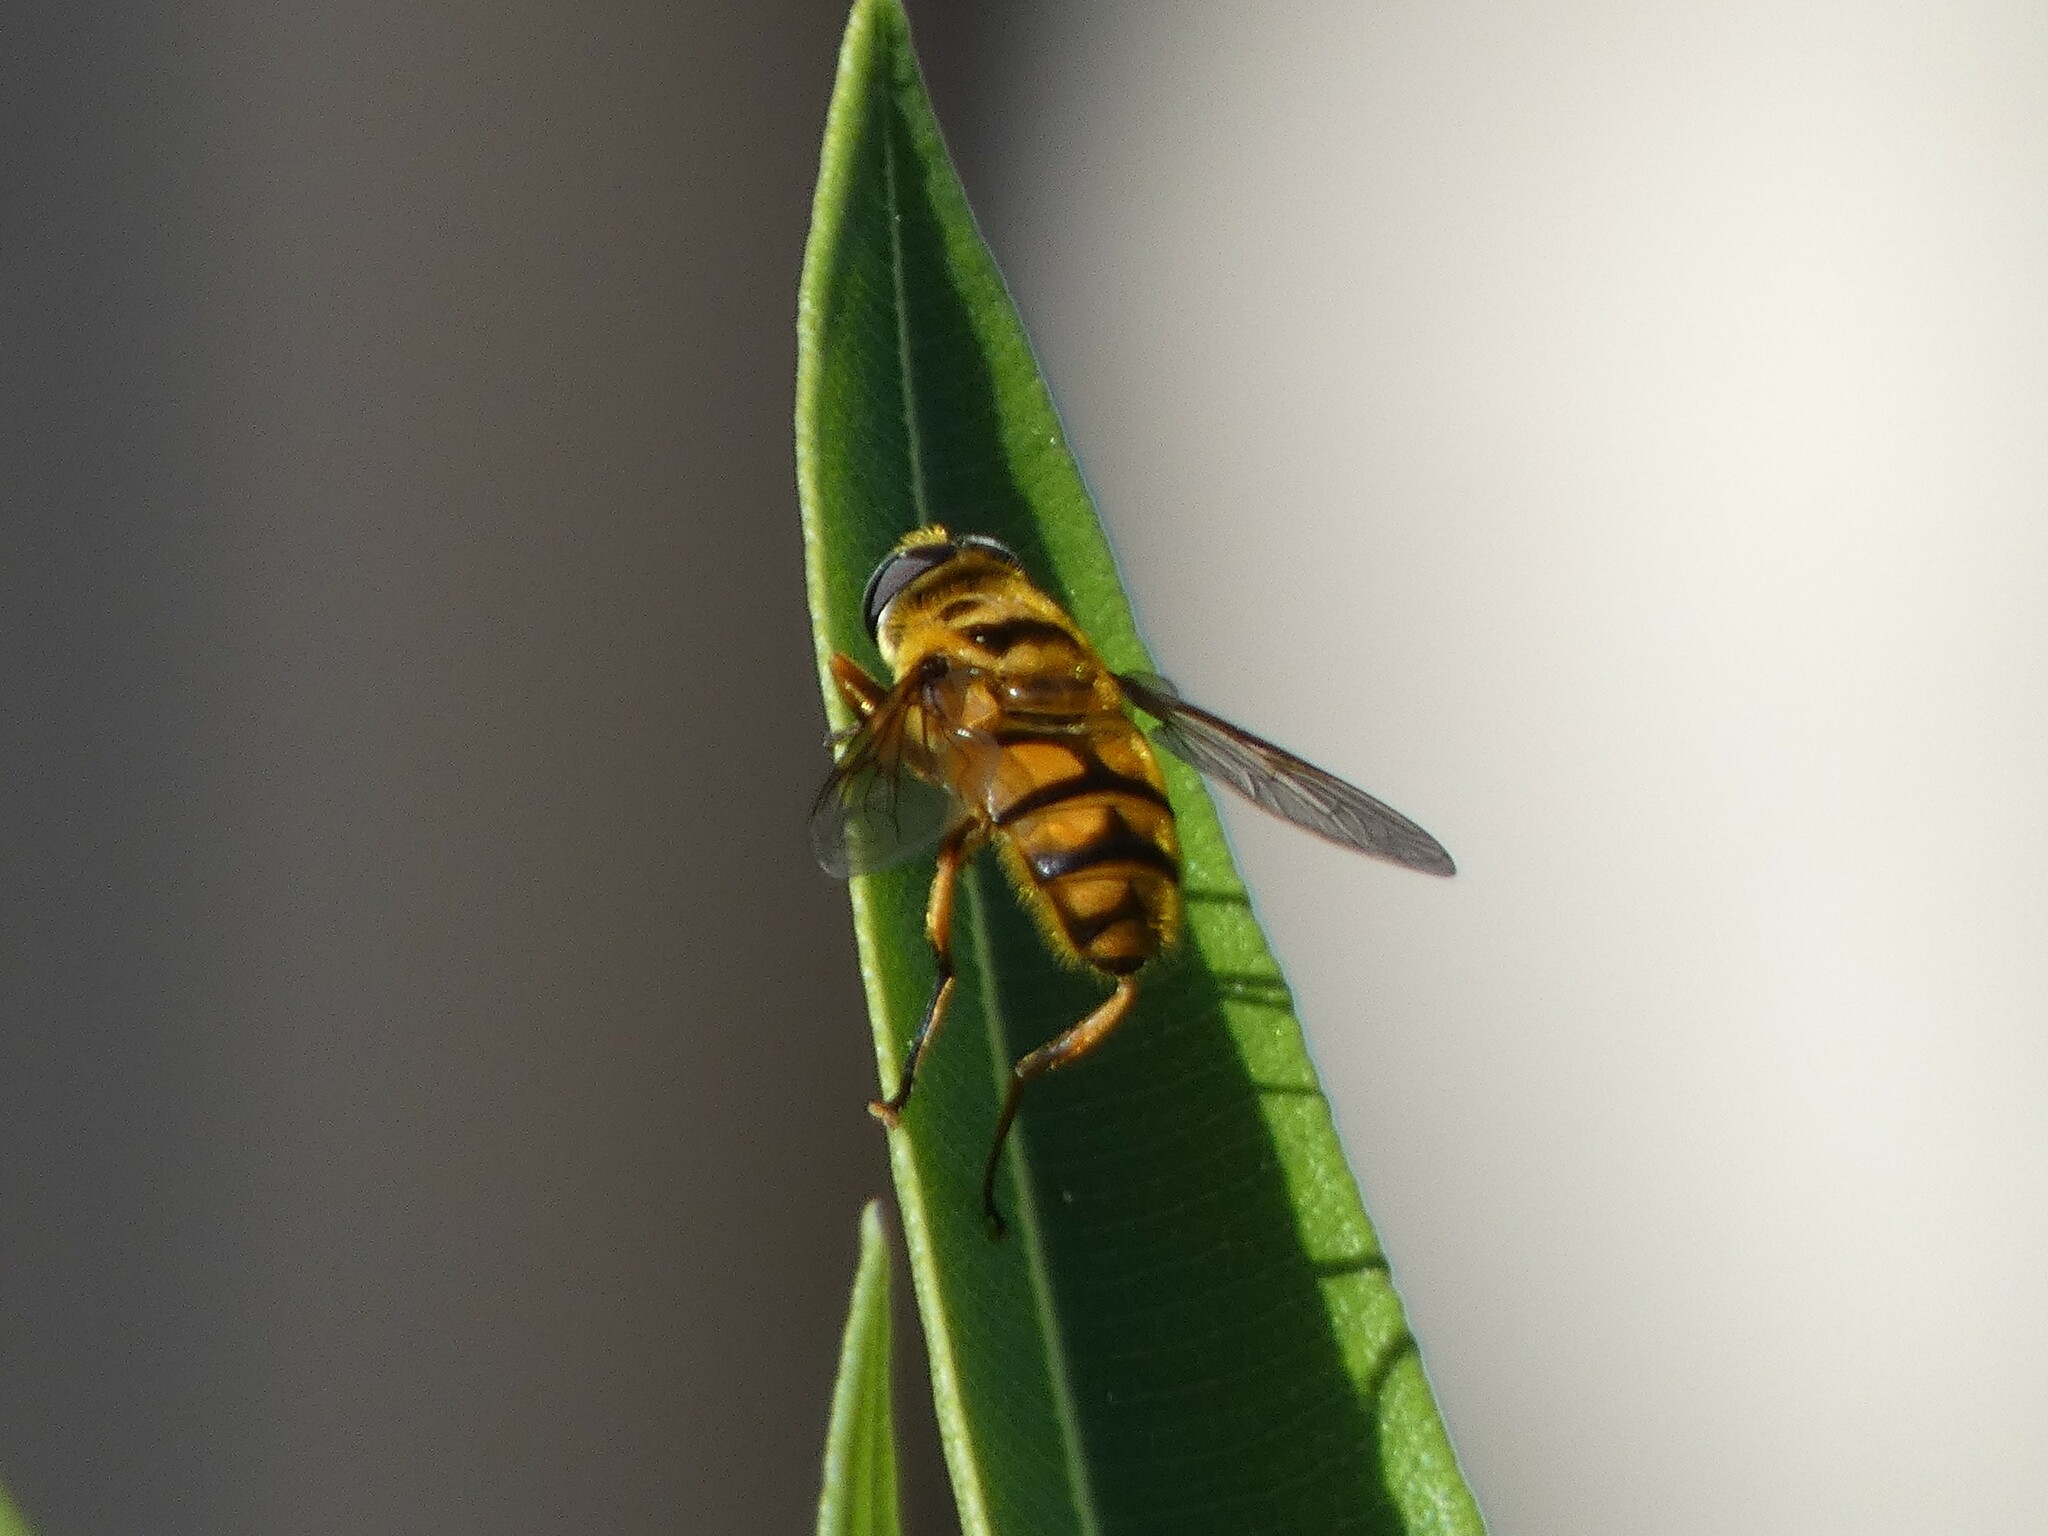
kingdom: Animalia
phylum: Arthropoda
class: Insecta
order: Diptera
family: Syrphidae
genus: Myathropa
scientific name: Myathropa florea
